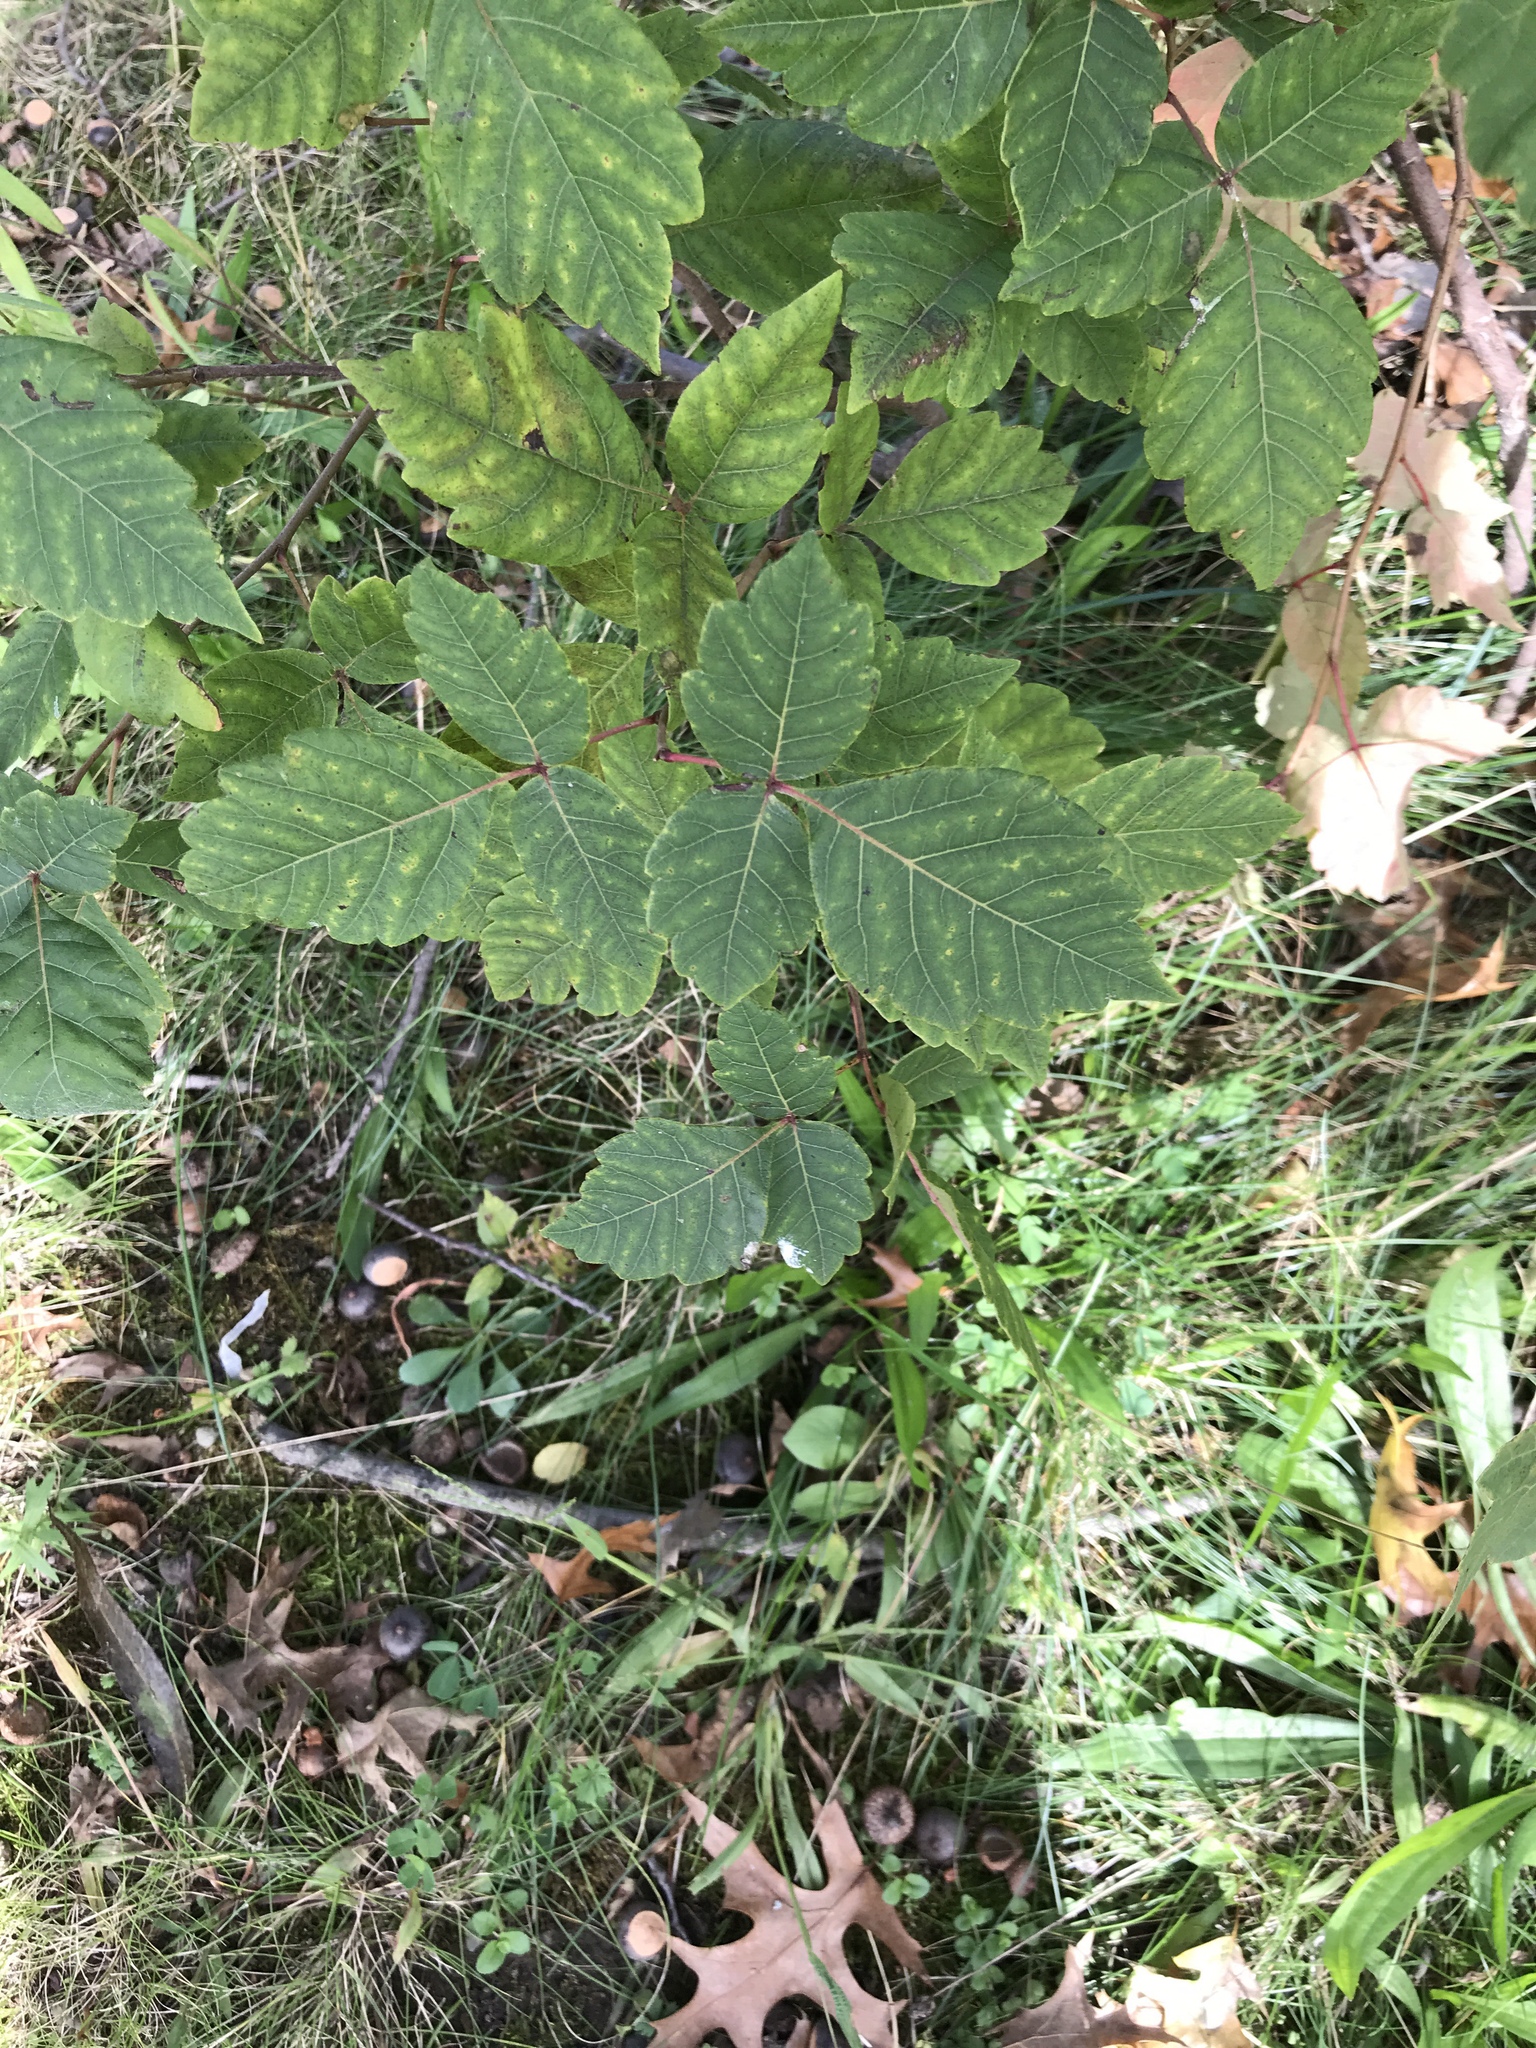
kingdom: Plantae
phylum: Tracheophyta
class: Magnoliopsida
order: Sapindales
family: Anacardiaceae
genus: Rhus
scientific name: Rhus aromatica
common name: Aromatic sumac
